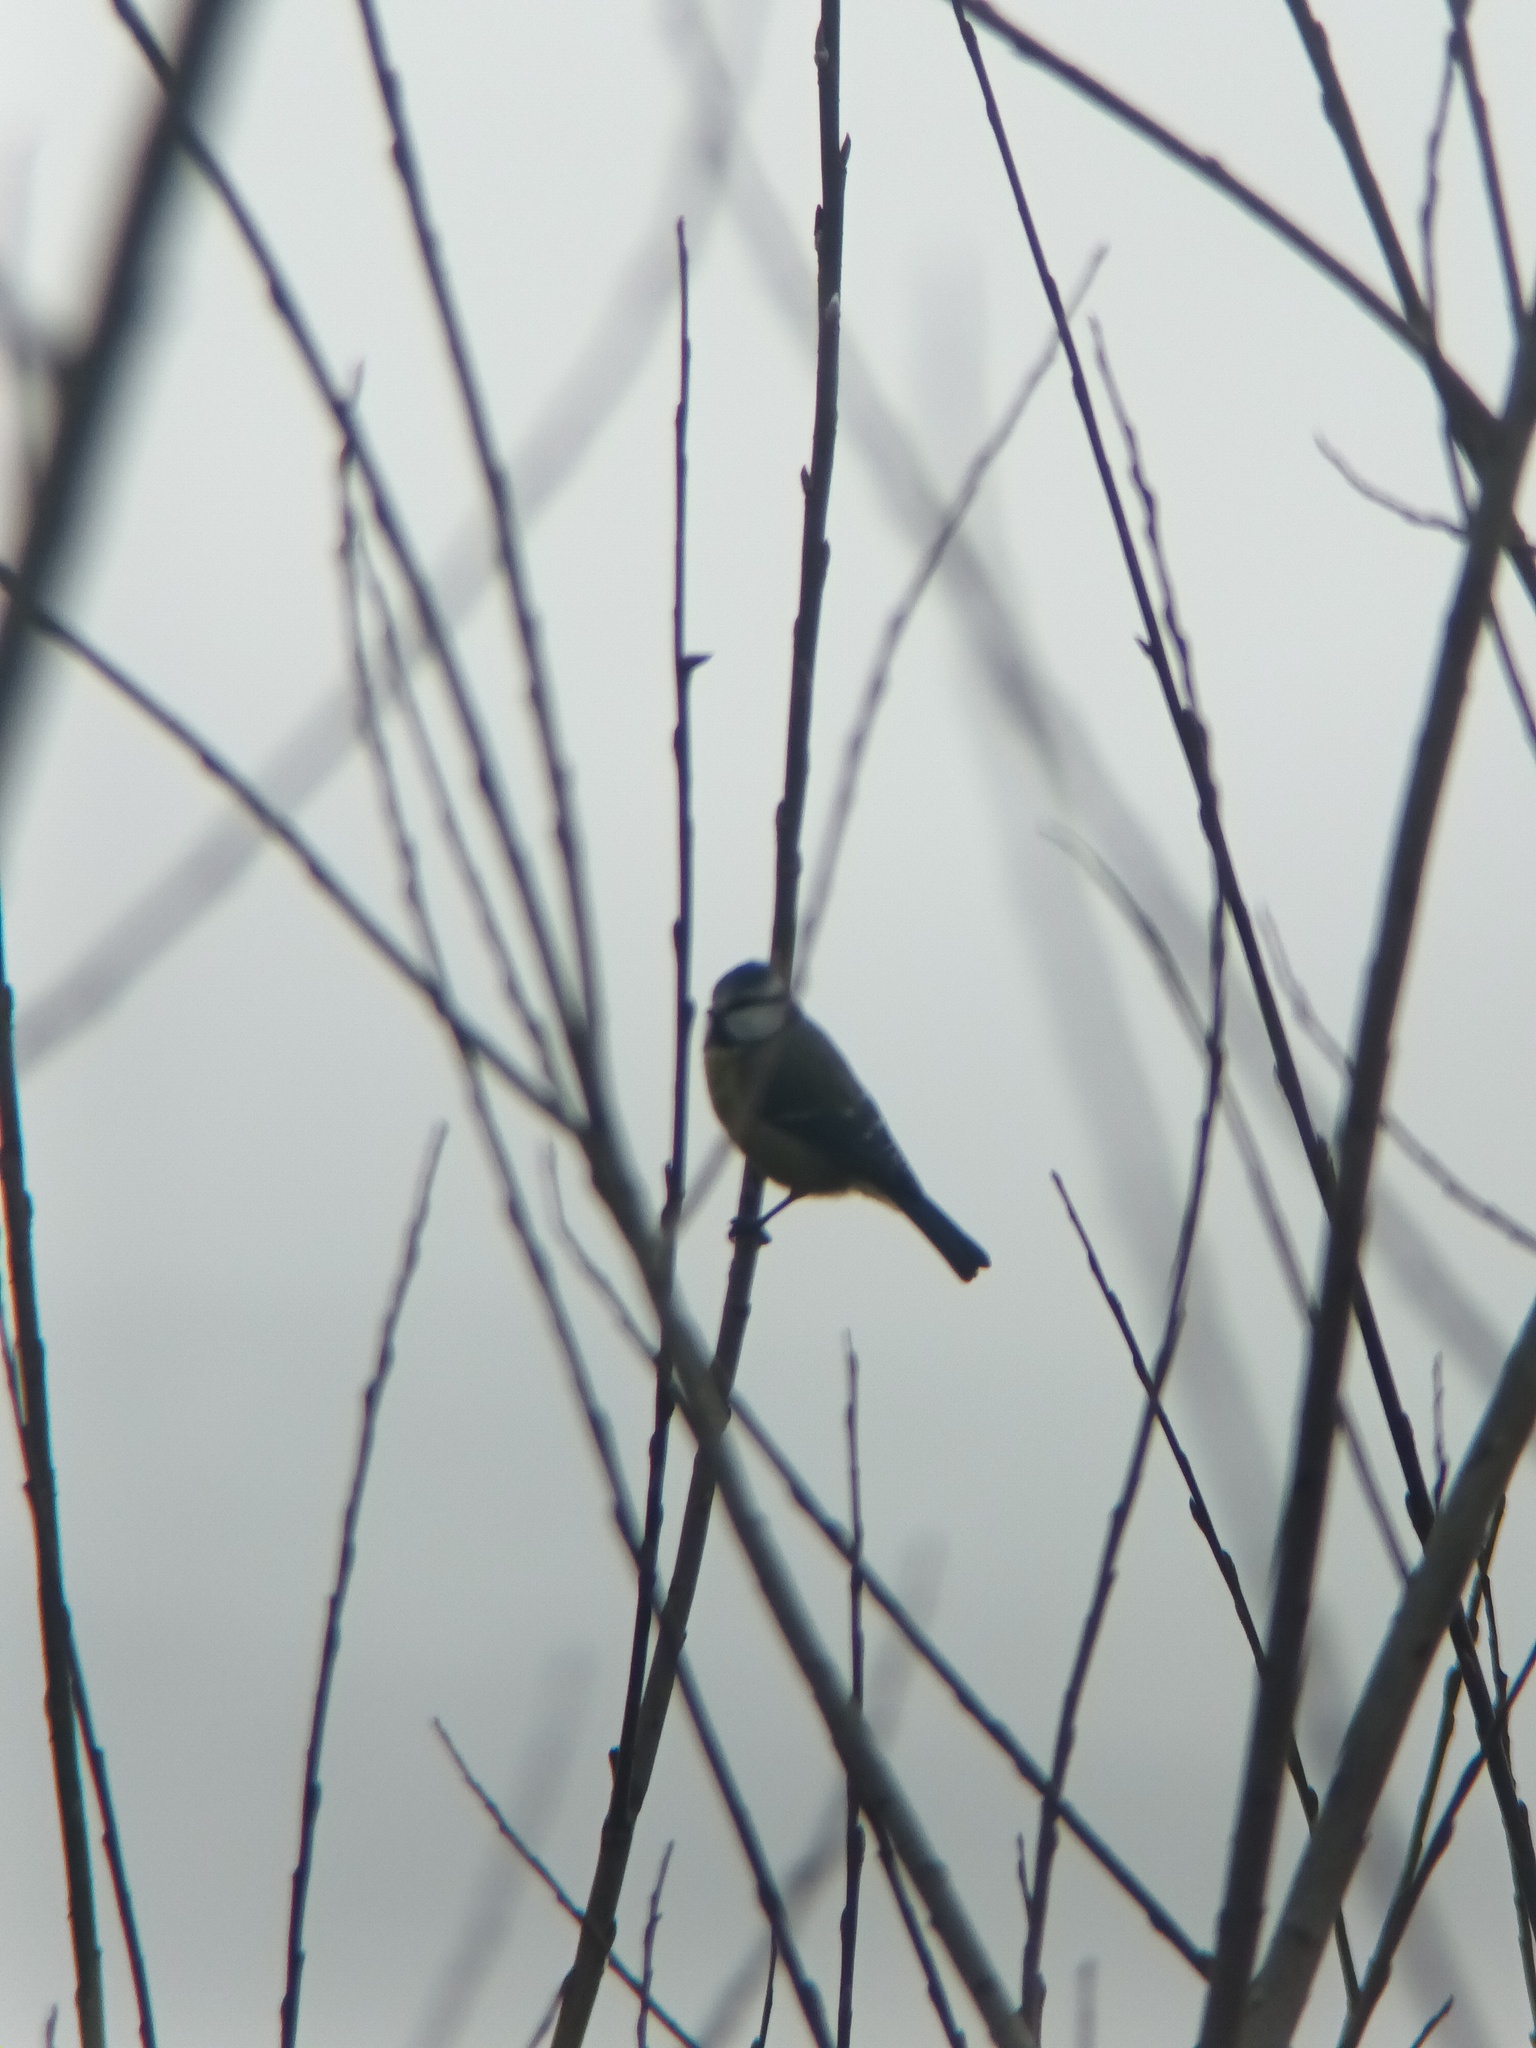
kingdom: Animalia
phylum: Chordata
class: Aves
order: Passeriformes
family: Paridae
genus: Cyanistes
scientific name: Cyanistes caeruleus
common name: Eurasian blue tit
